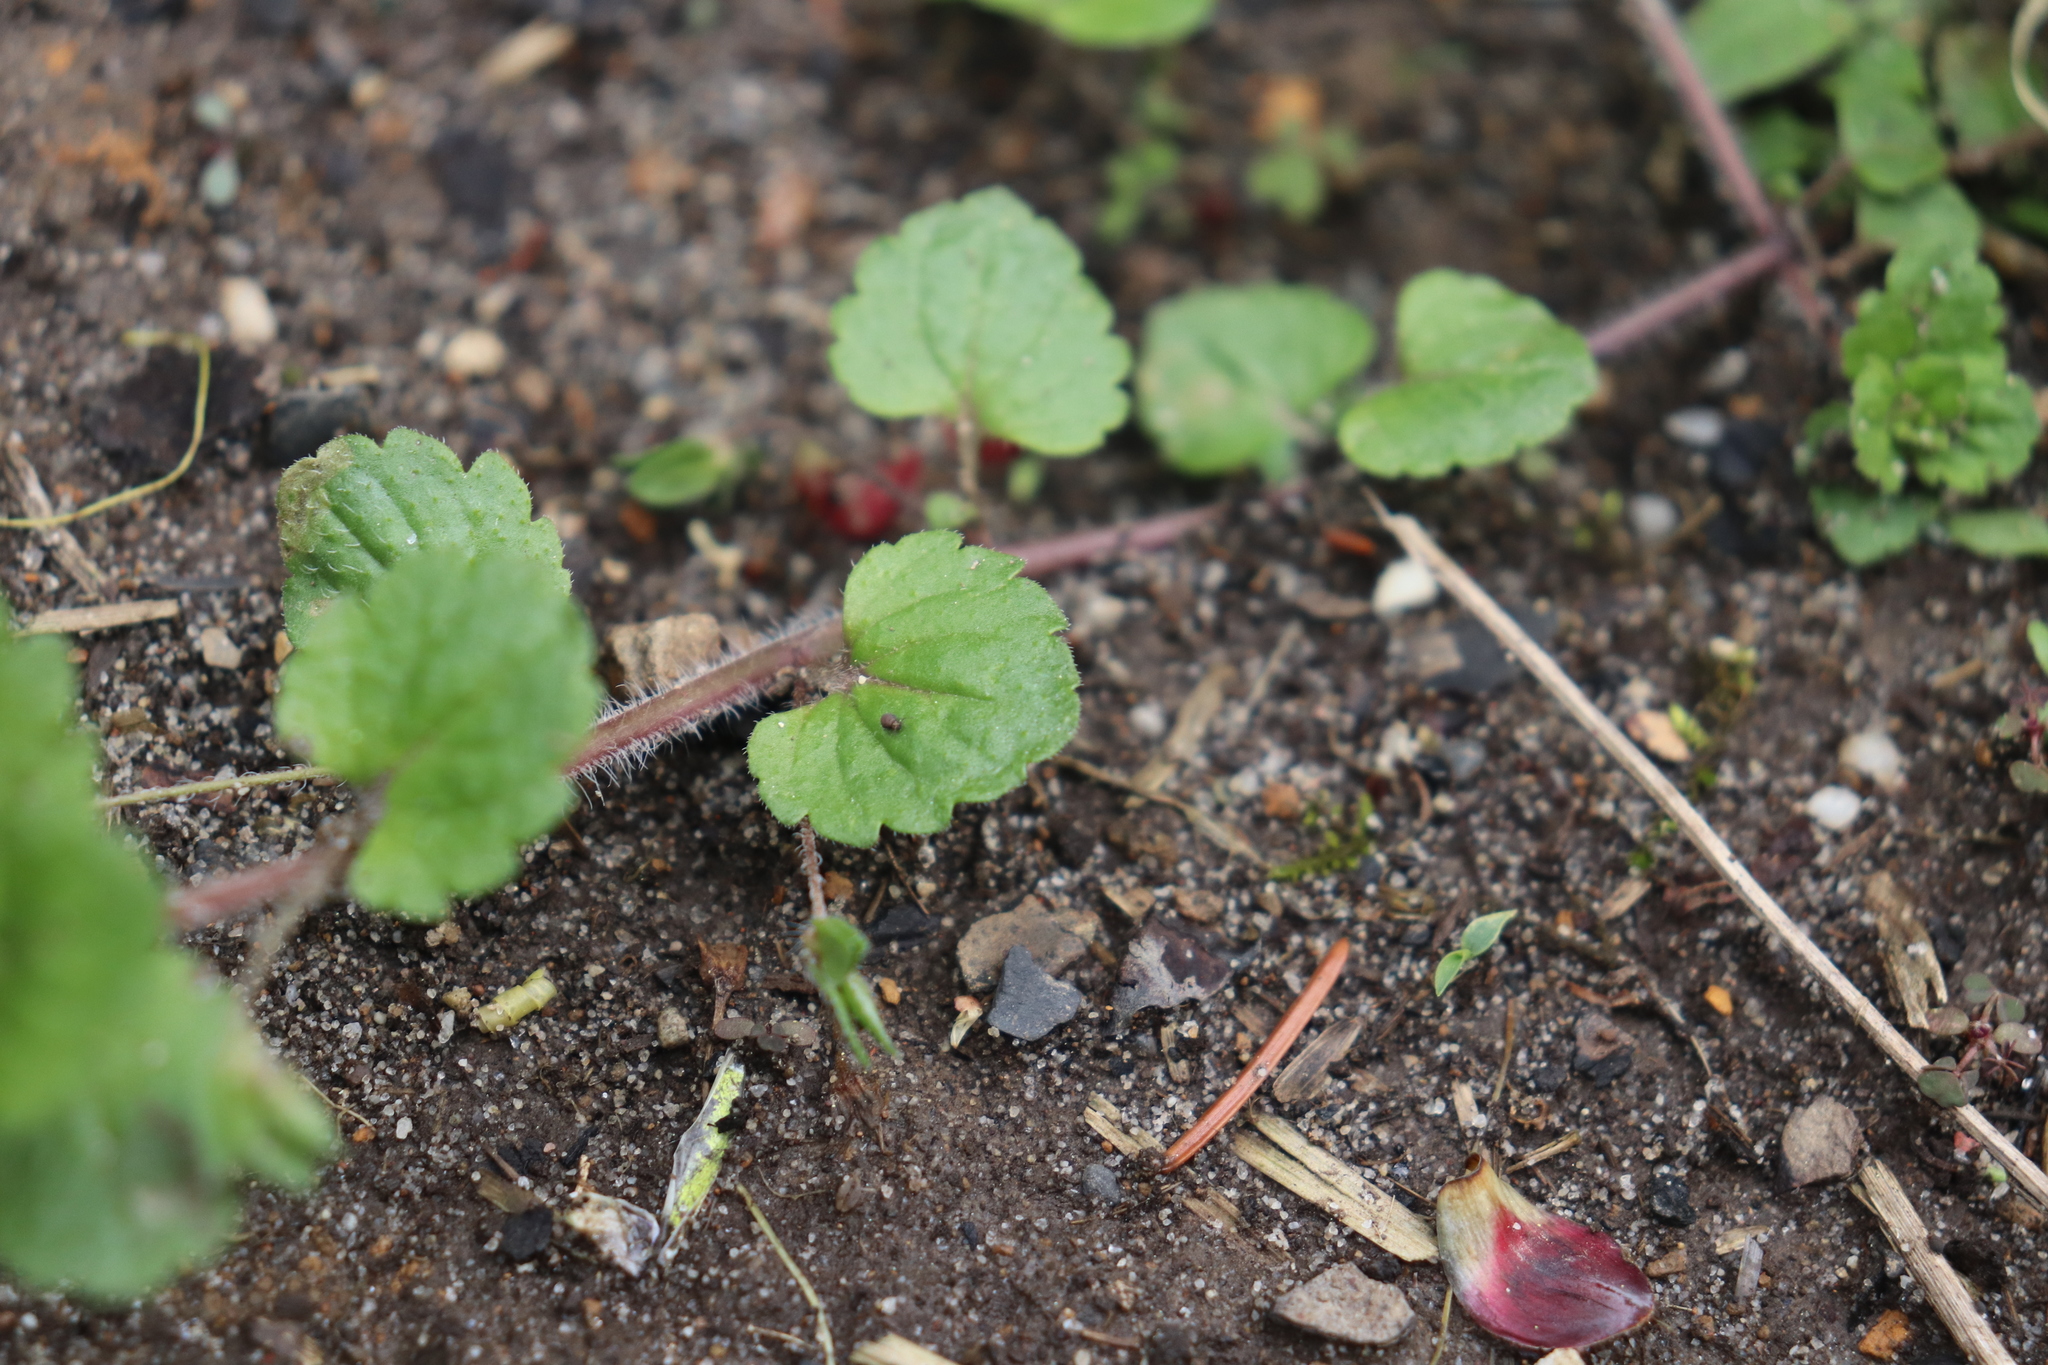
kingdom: Plantae
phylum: Tracheophyta
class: Magnoliopsida
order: Lamiales
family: Plantaginaceae
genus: Veronica
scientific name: Veronica persica
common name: Common field-speedwell
